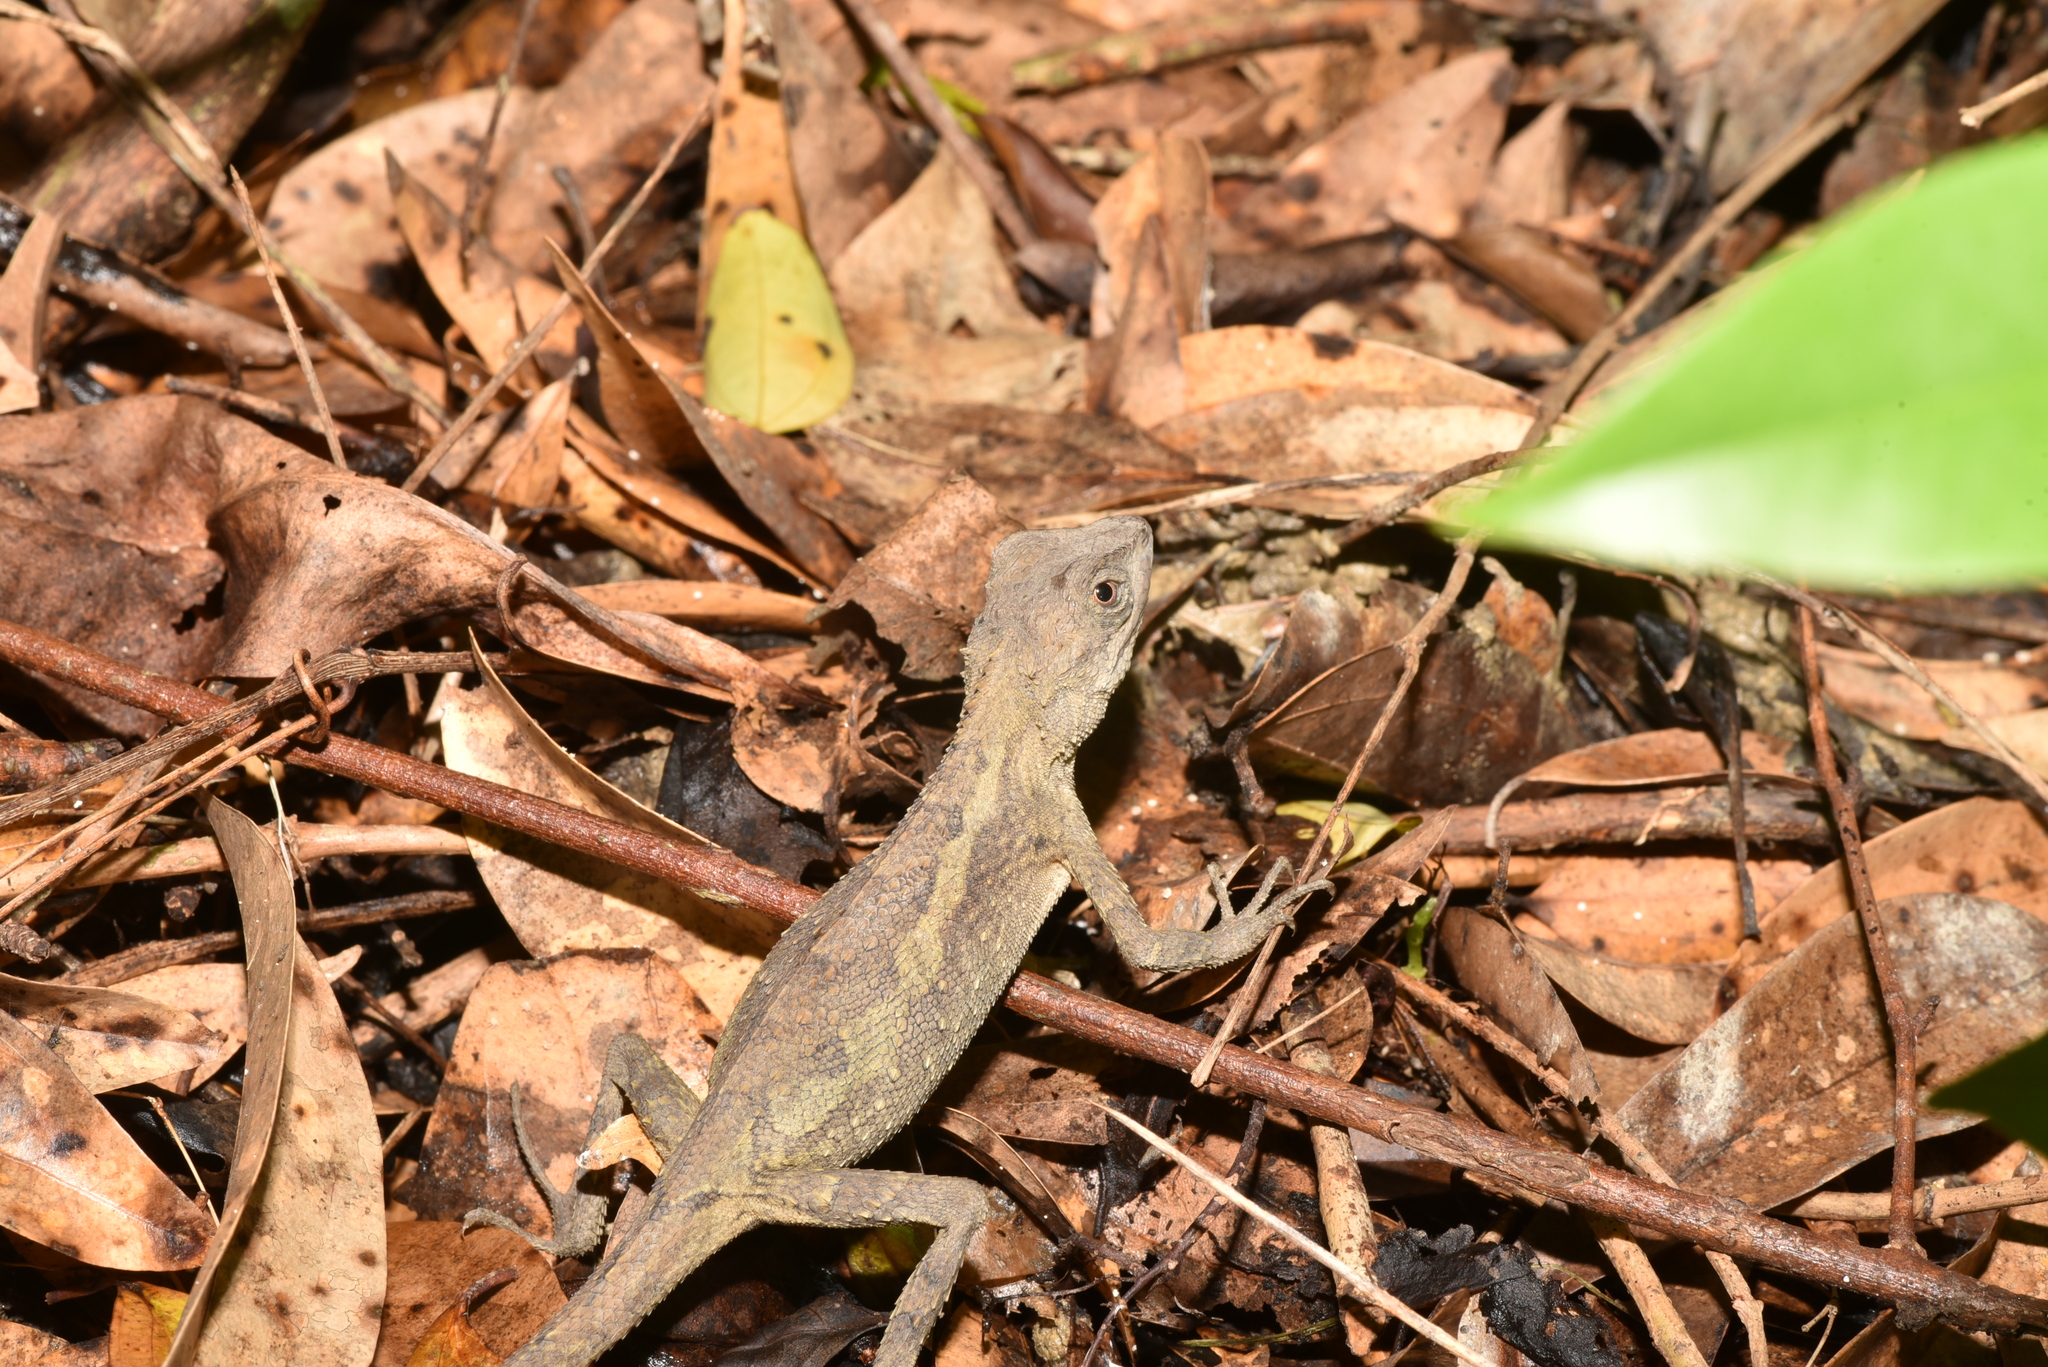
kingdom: Animalia
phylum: Chordata
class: Squamata
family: Agamidae
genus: Diploderma
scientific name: Diploderma swinhonis
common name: Taiwan japalure
